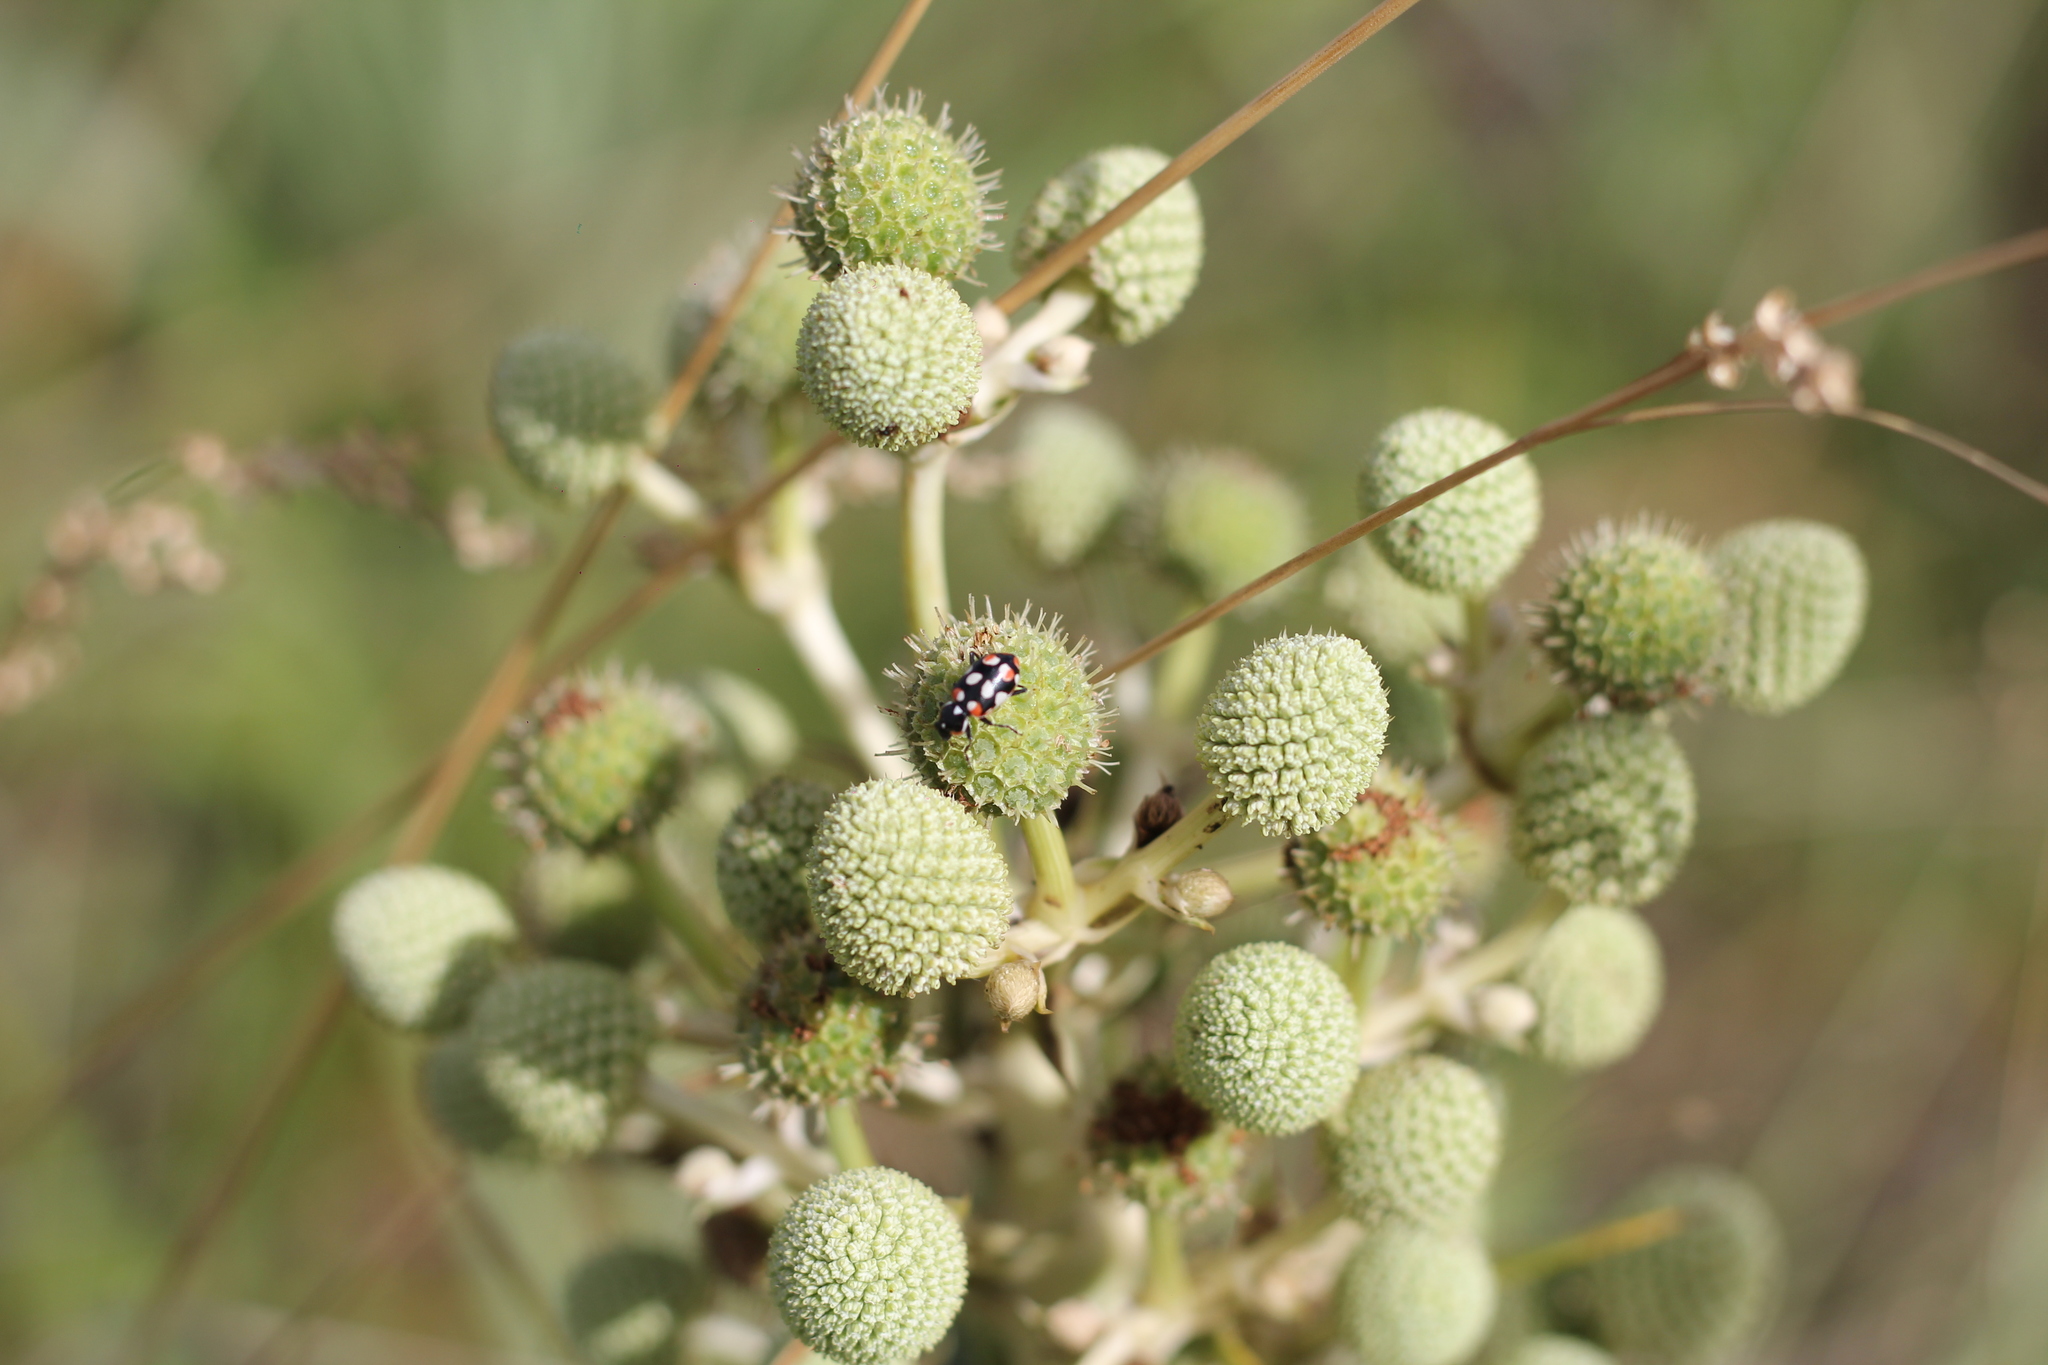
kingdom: Animalia
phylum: Arthropoda
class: Insecta
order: Coleoptera
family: Coccinellidae
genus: Eriopis
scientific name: Eriopis connexa
